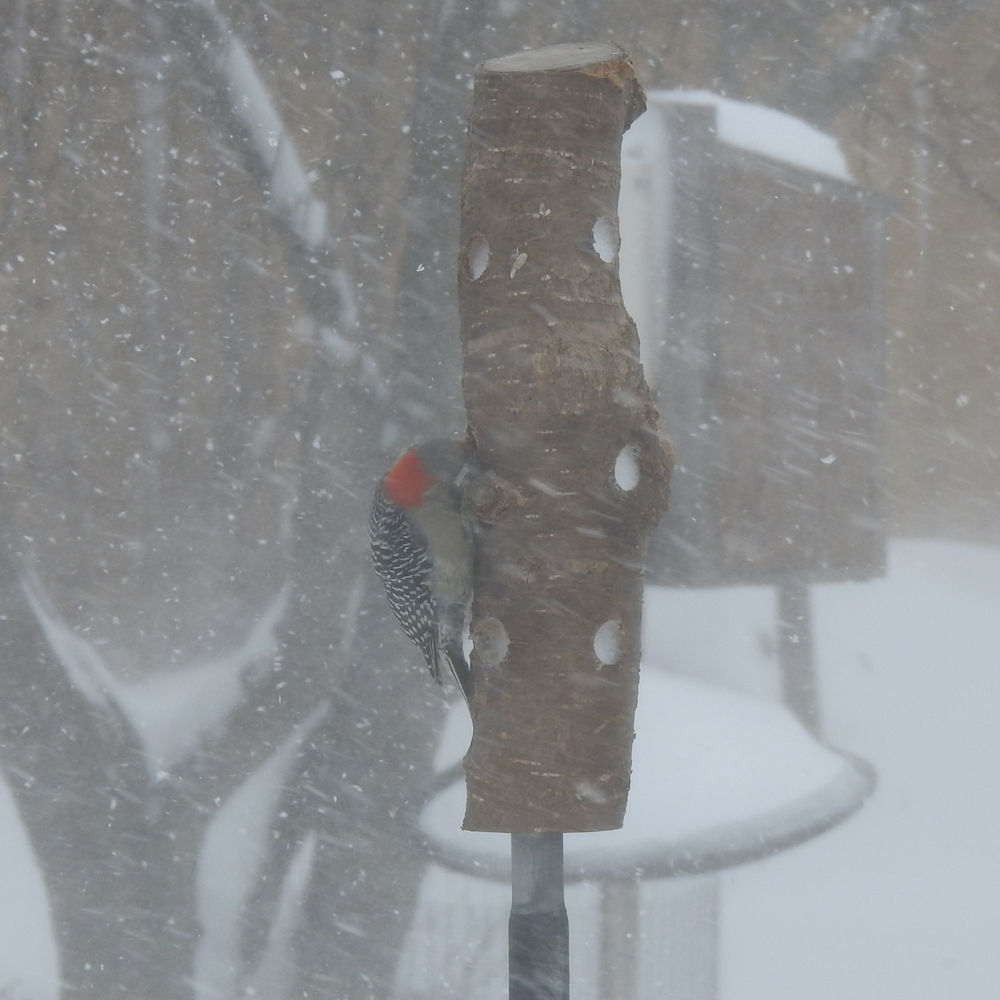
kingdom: Animalia
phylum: Chordata
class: Aves
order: Piciformes
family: Picidae
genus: Melanerpes
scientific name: Melanerpes carolinus
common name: Red-bellied woodpecker
